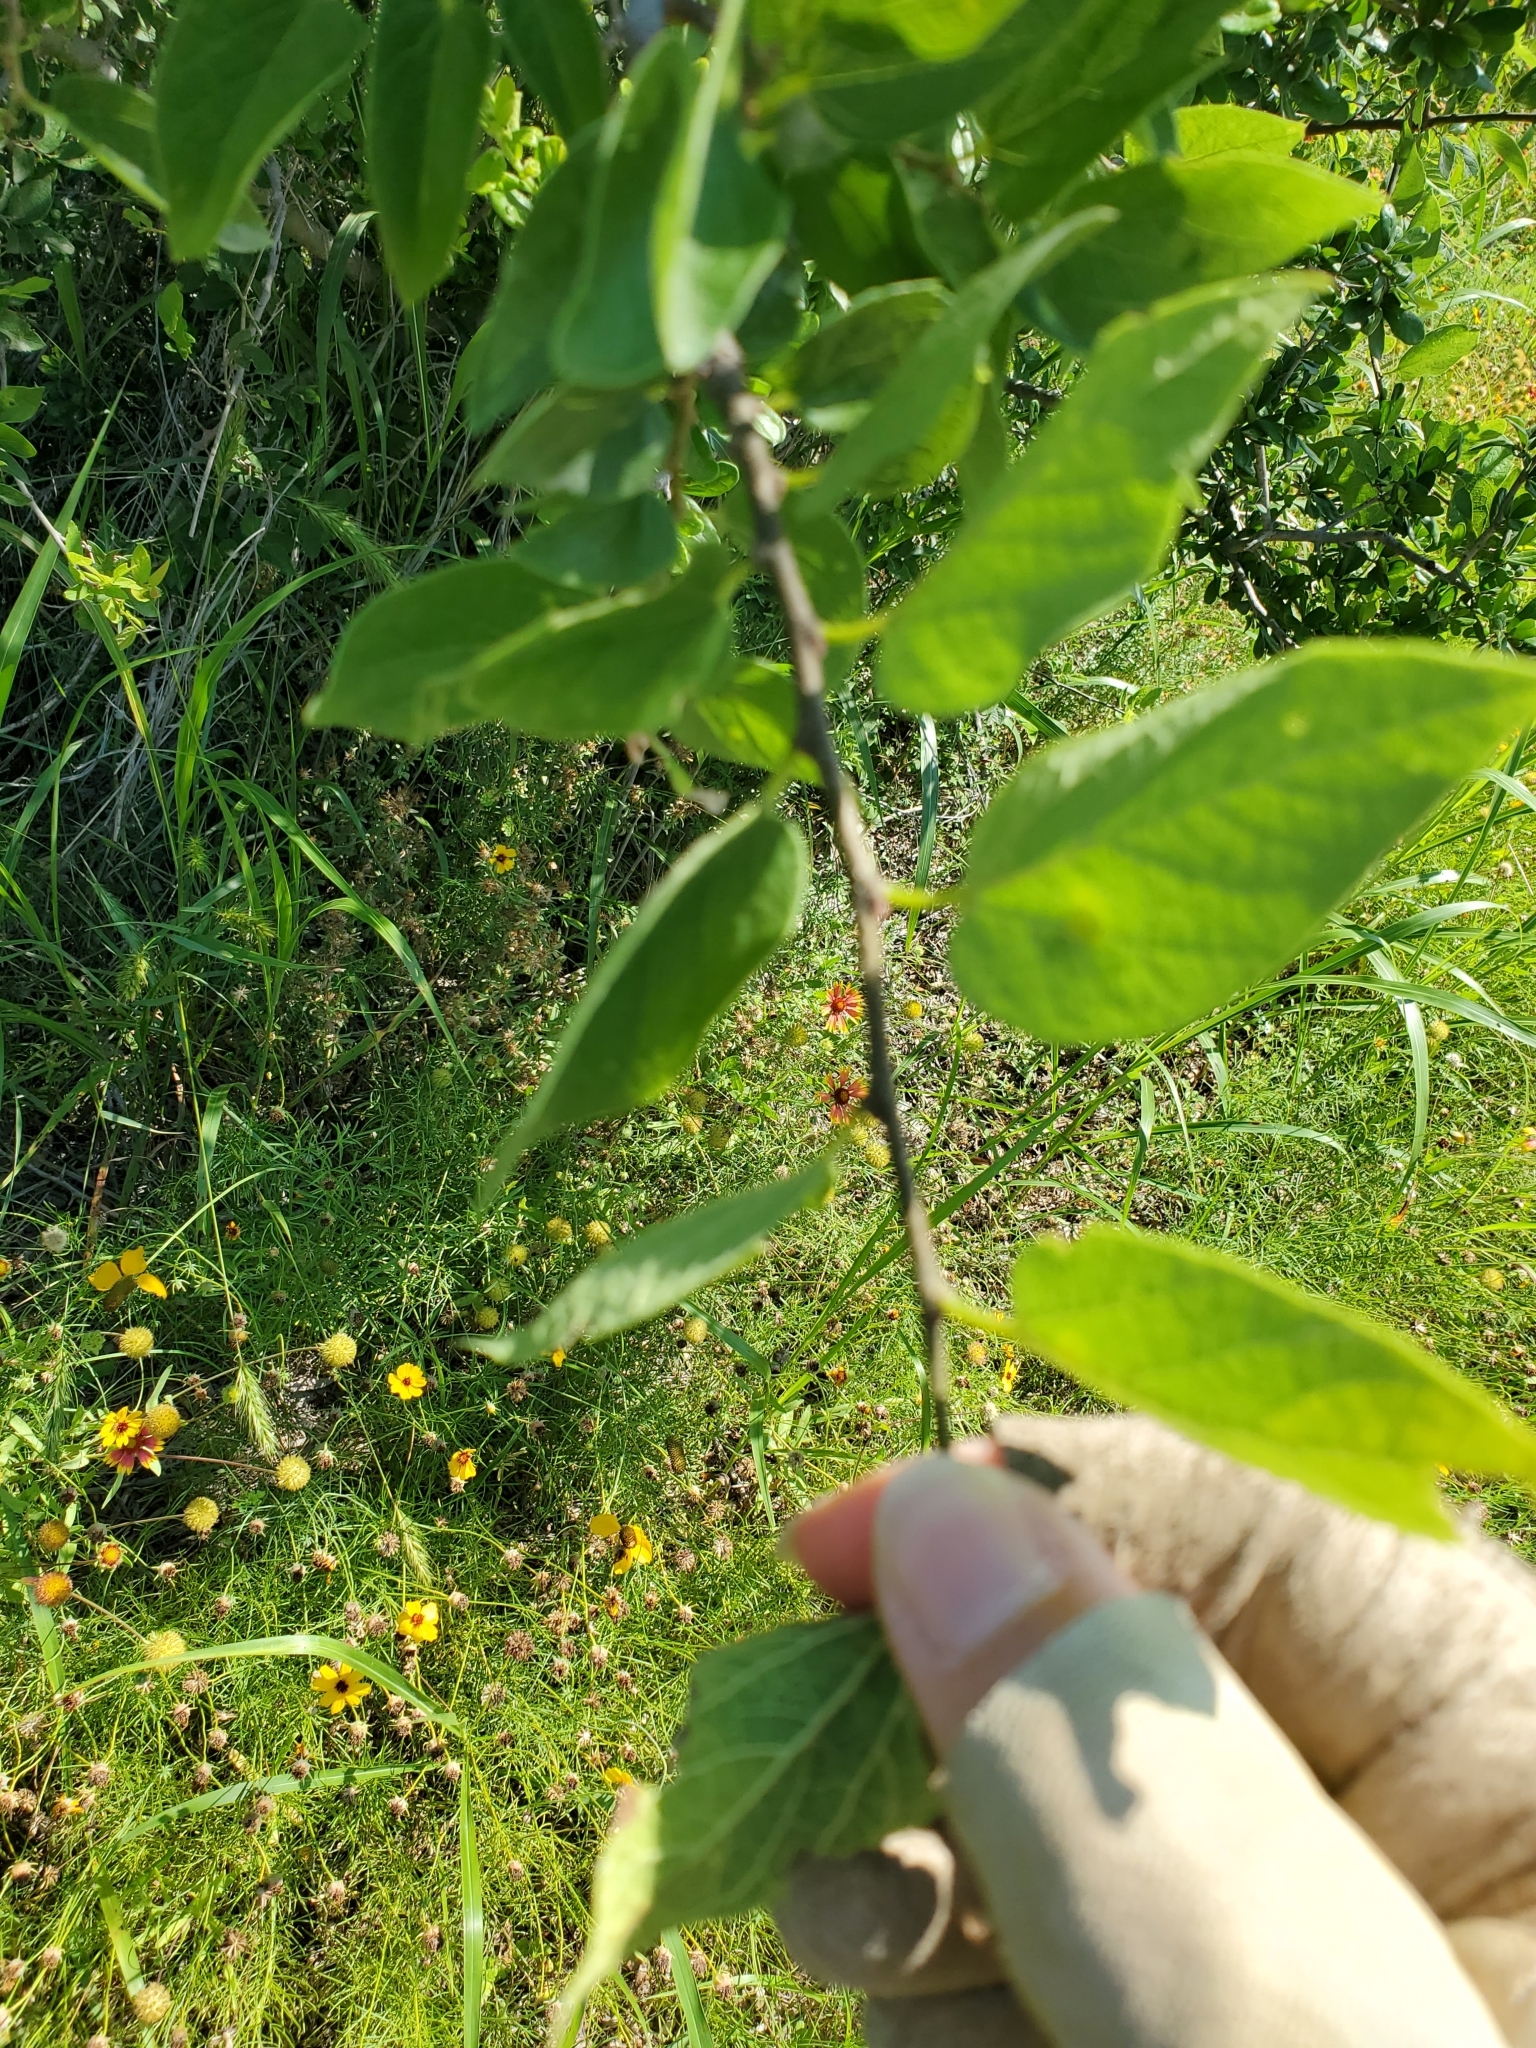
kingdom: Animalia
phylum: Arthropoda
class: Insecta
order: Hemiptera
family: Aphalaridae
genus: Pachypsylla
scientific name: Pachypsylla venusta
